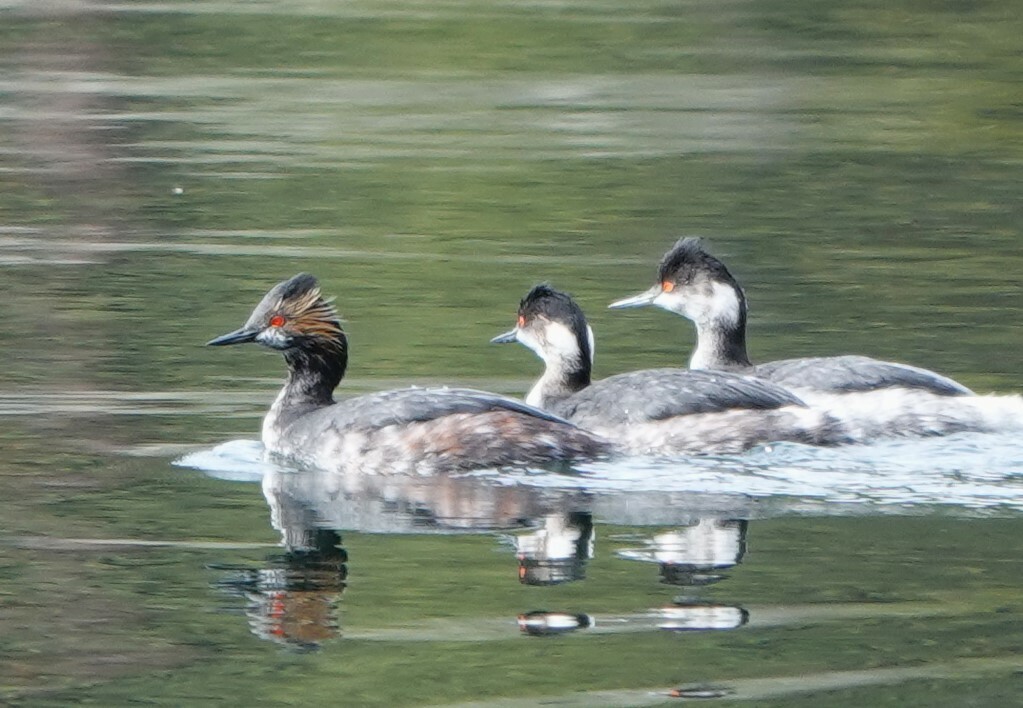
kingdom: Animalia
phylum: Chordata
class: Aves
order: Podicipediformes
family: Podicipedidae
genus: Podiceps
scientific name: Podiceps nigricollis
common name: Black-necked grebe
